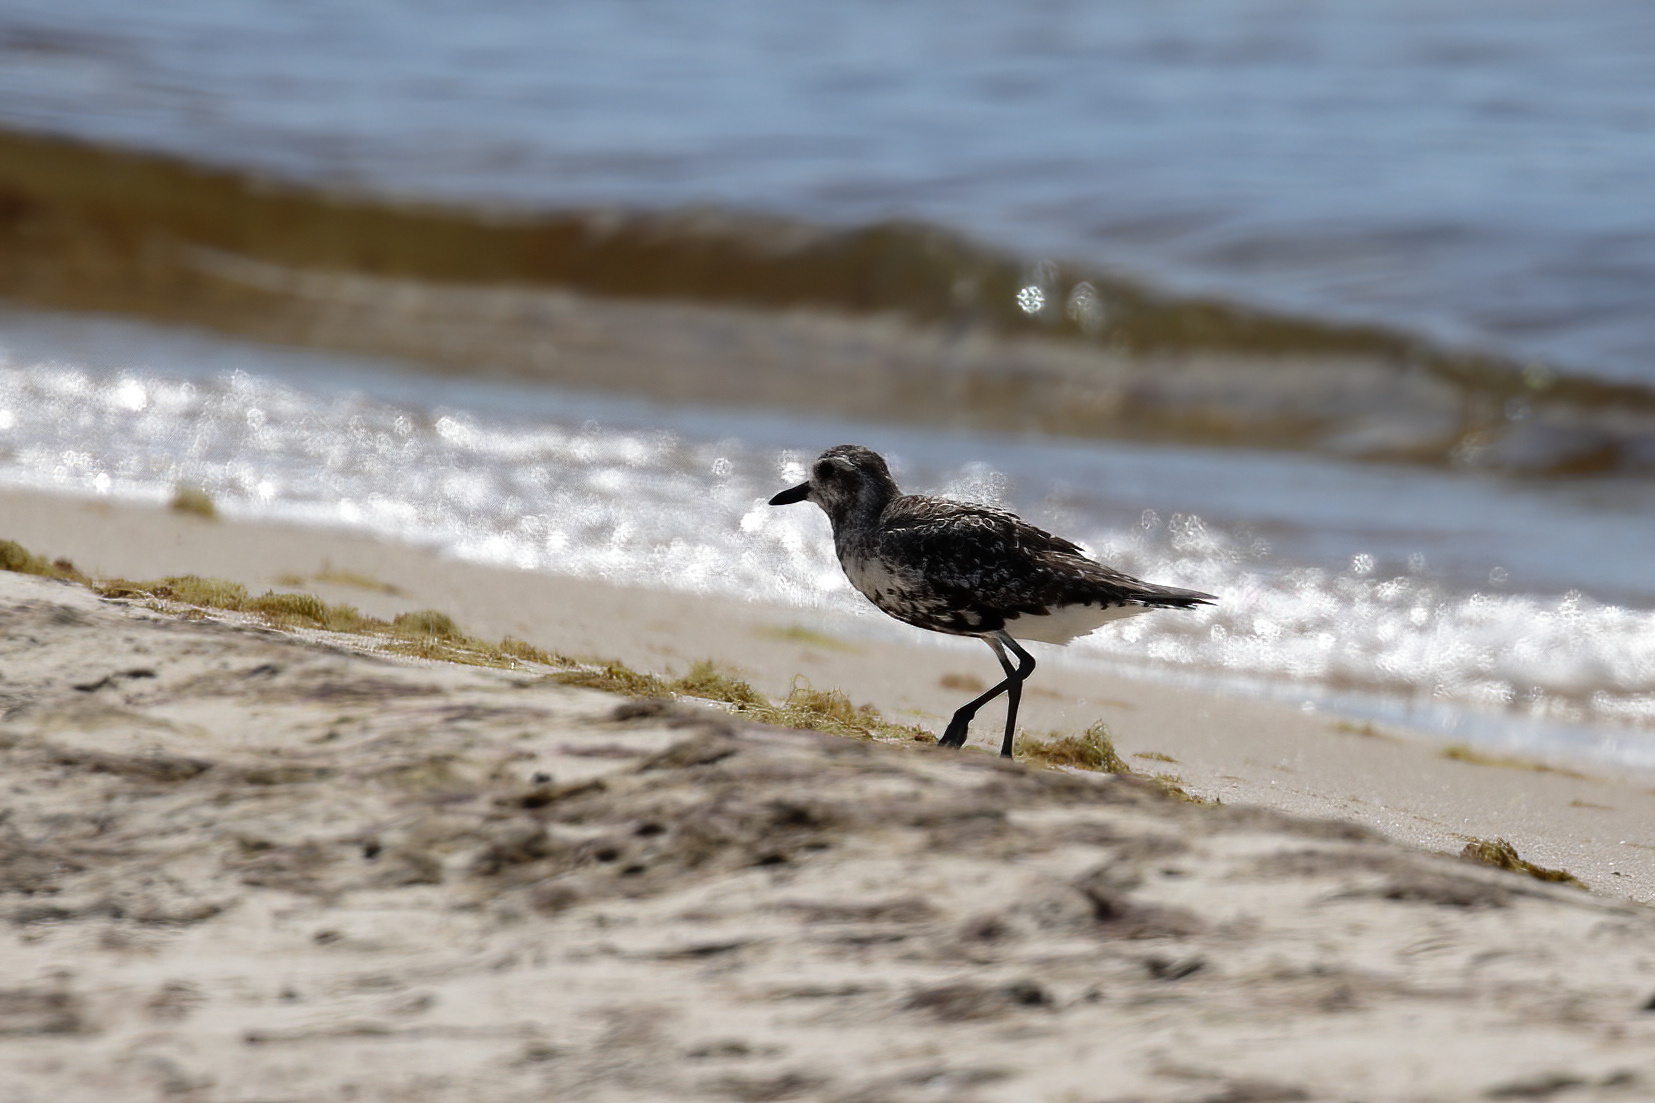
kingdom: Animalia
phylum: Chordata
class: Aves
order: Charadriiformes
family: Charadriidae
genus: Pluvialis
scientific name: Pluvialis squatarola
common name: Grey plover
